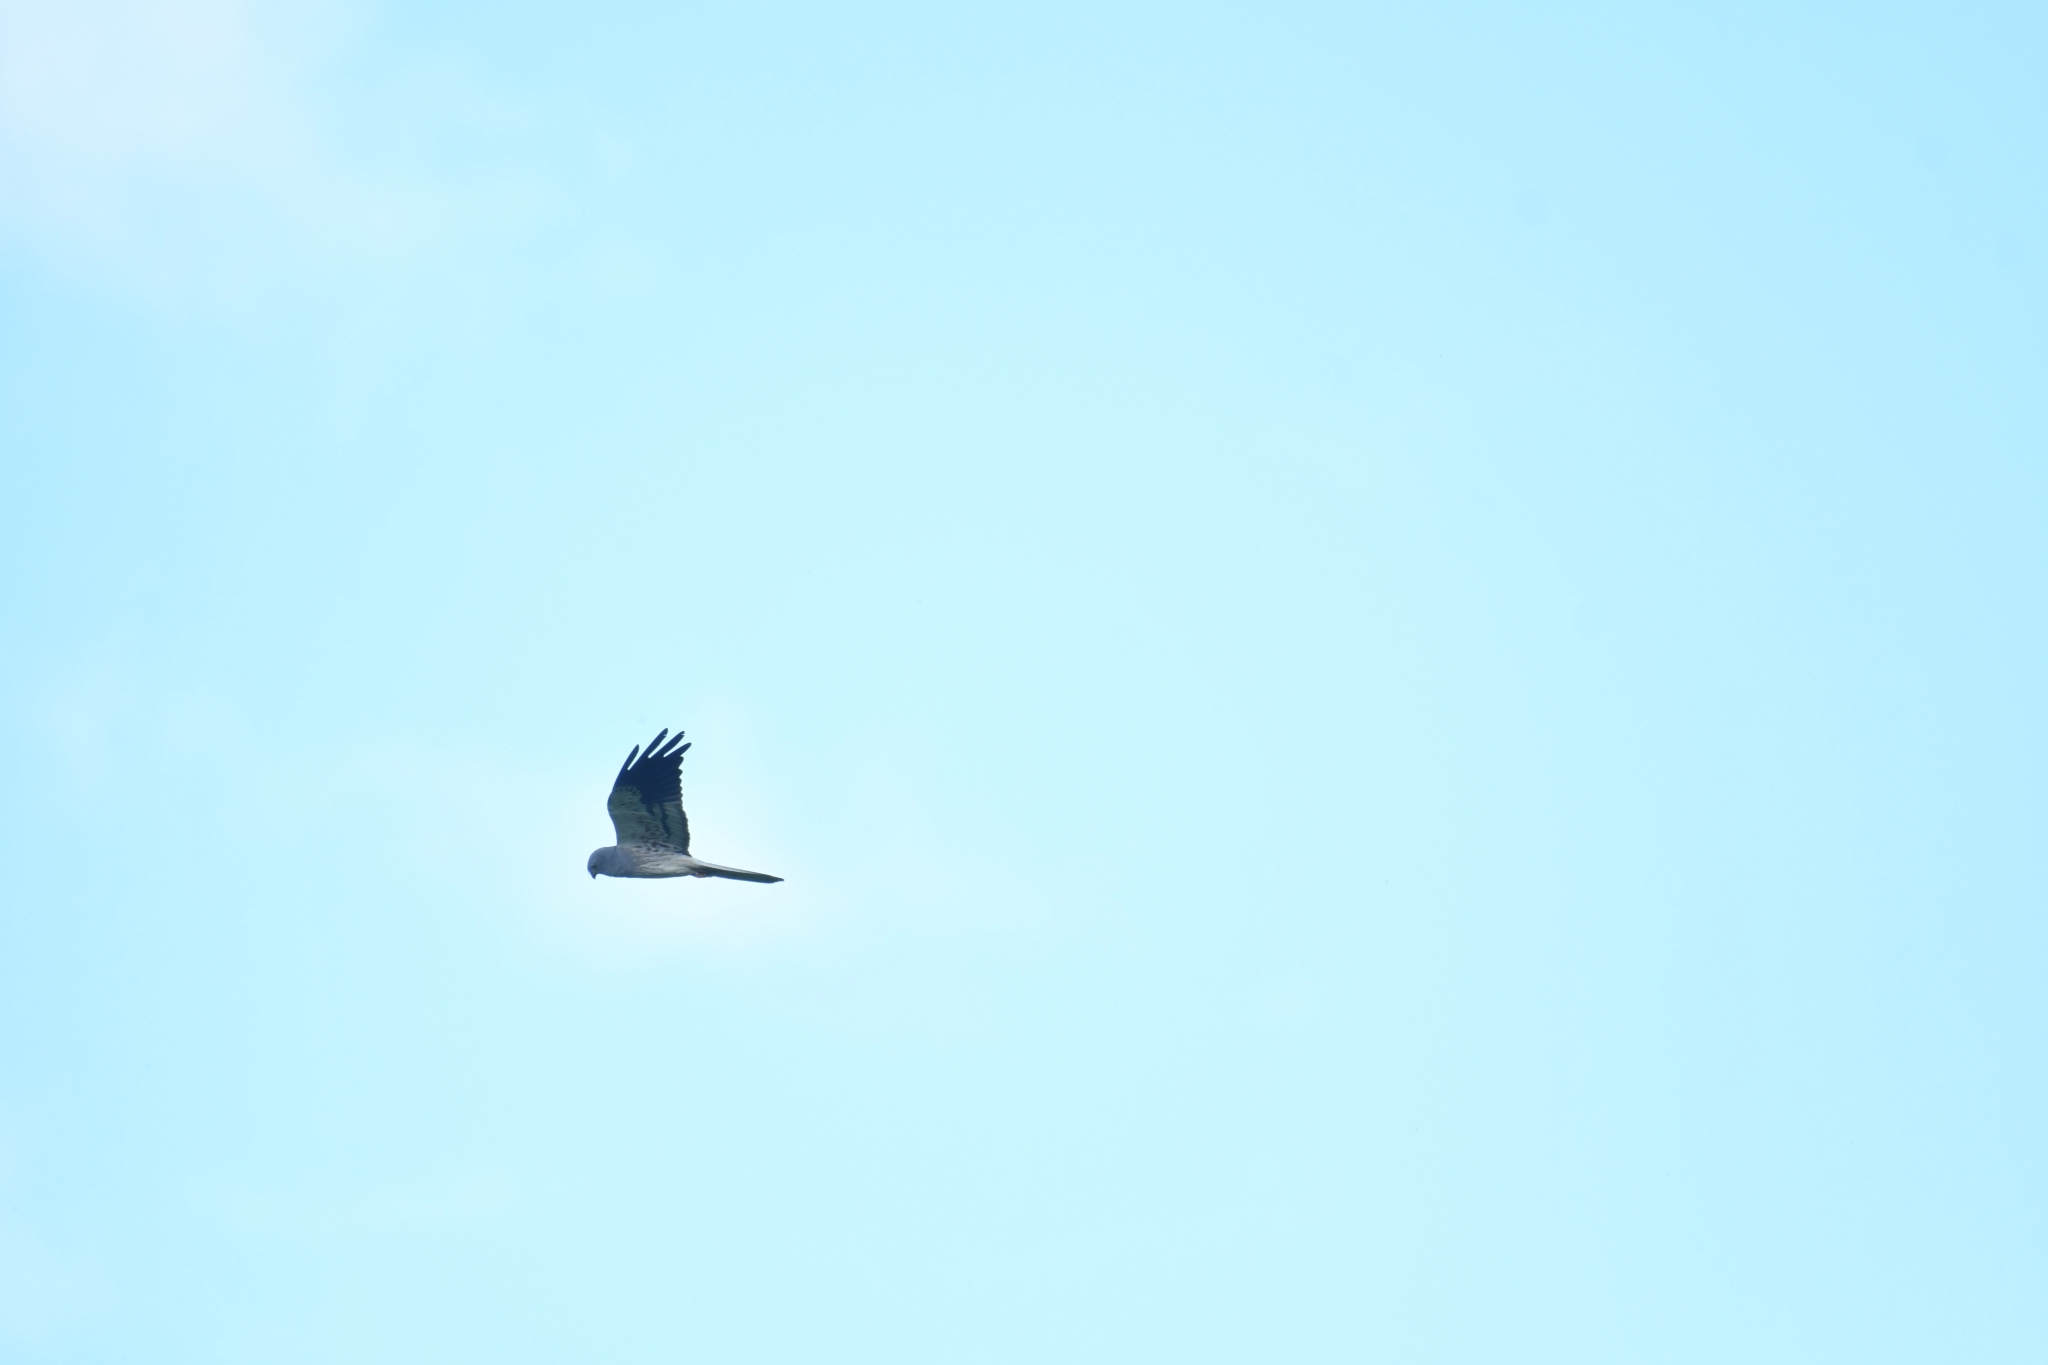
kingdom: Animalia
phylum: Chordata
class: Aves
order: Accipitriformes
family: Accipitridae
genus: Circus
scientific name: Circus pygargus
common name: Montagu's harrier
